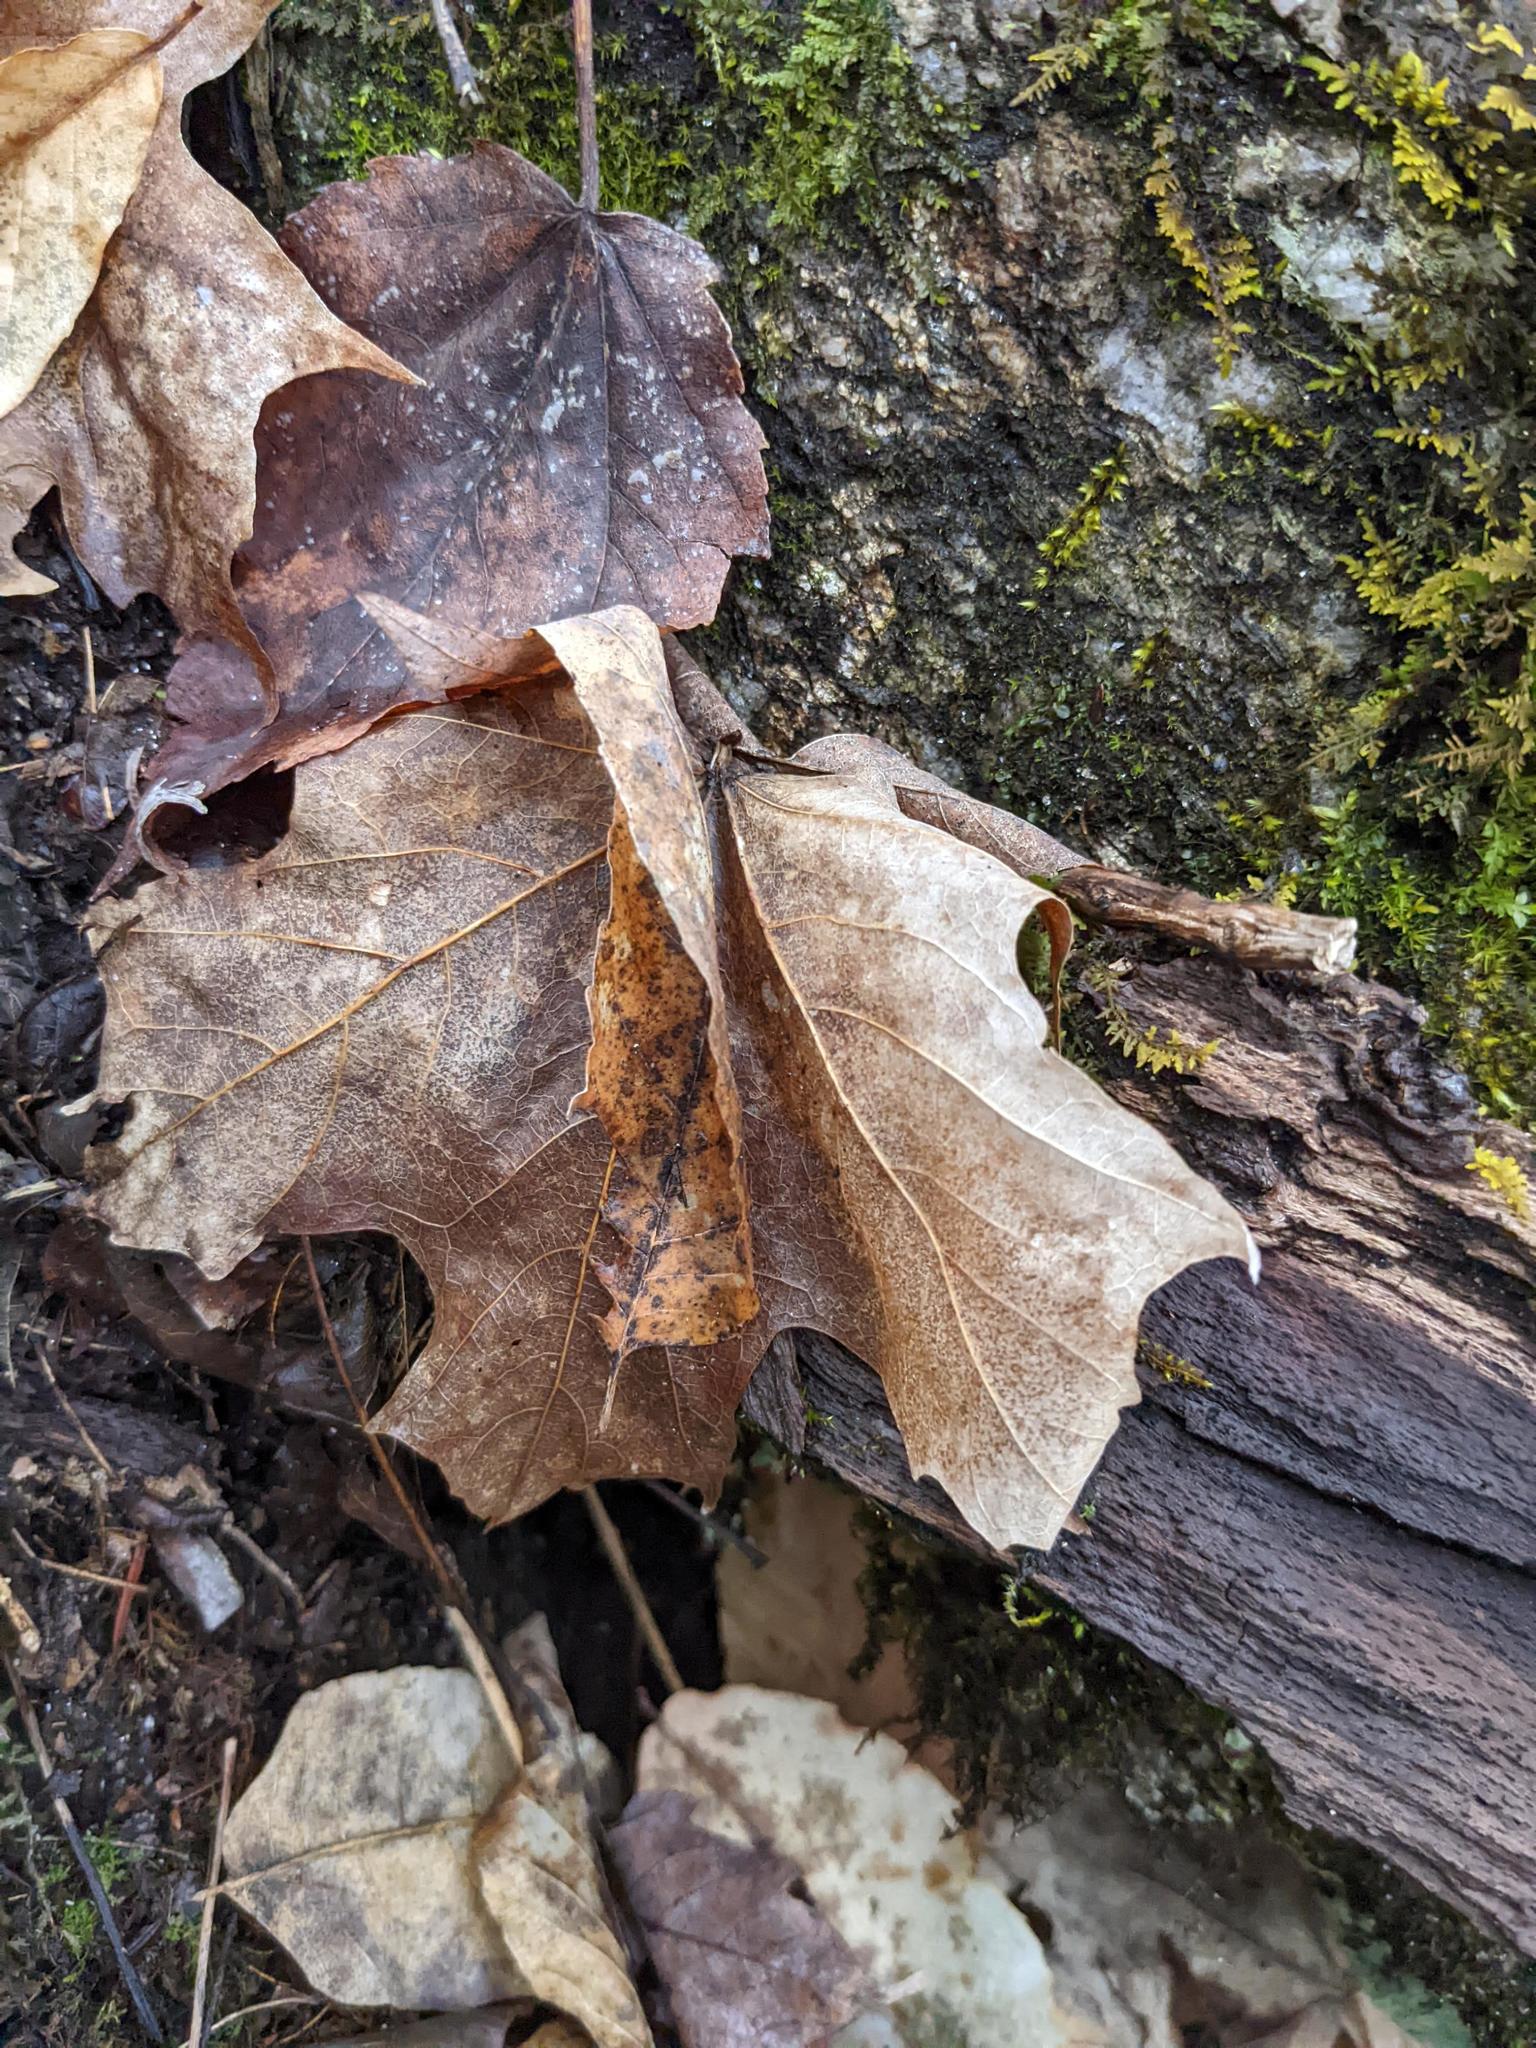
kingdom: Plantae
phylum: Tracheophyta
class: Magnoliopsida
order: Sapindales
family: Sapindaceae
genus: Acer
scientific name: Acer saccharum
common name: Sugar maple
